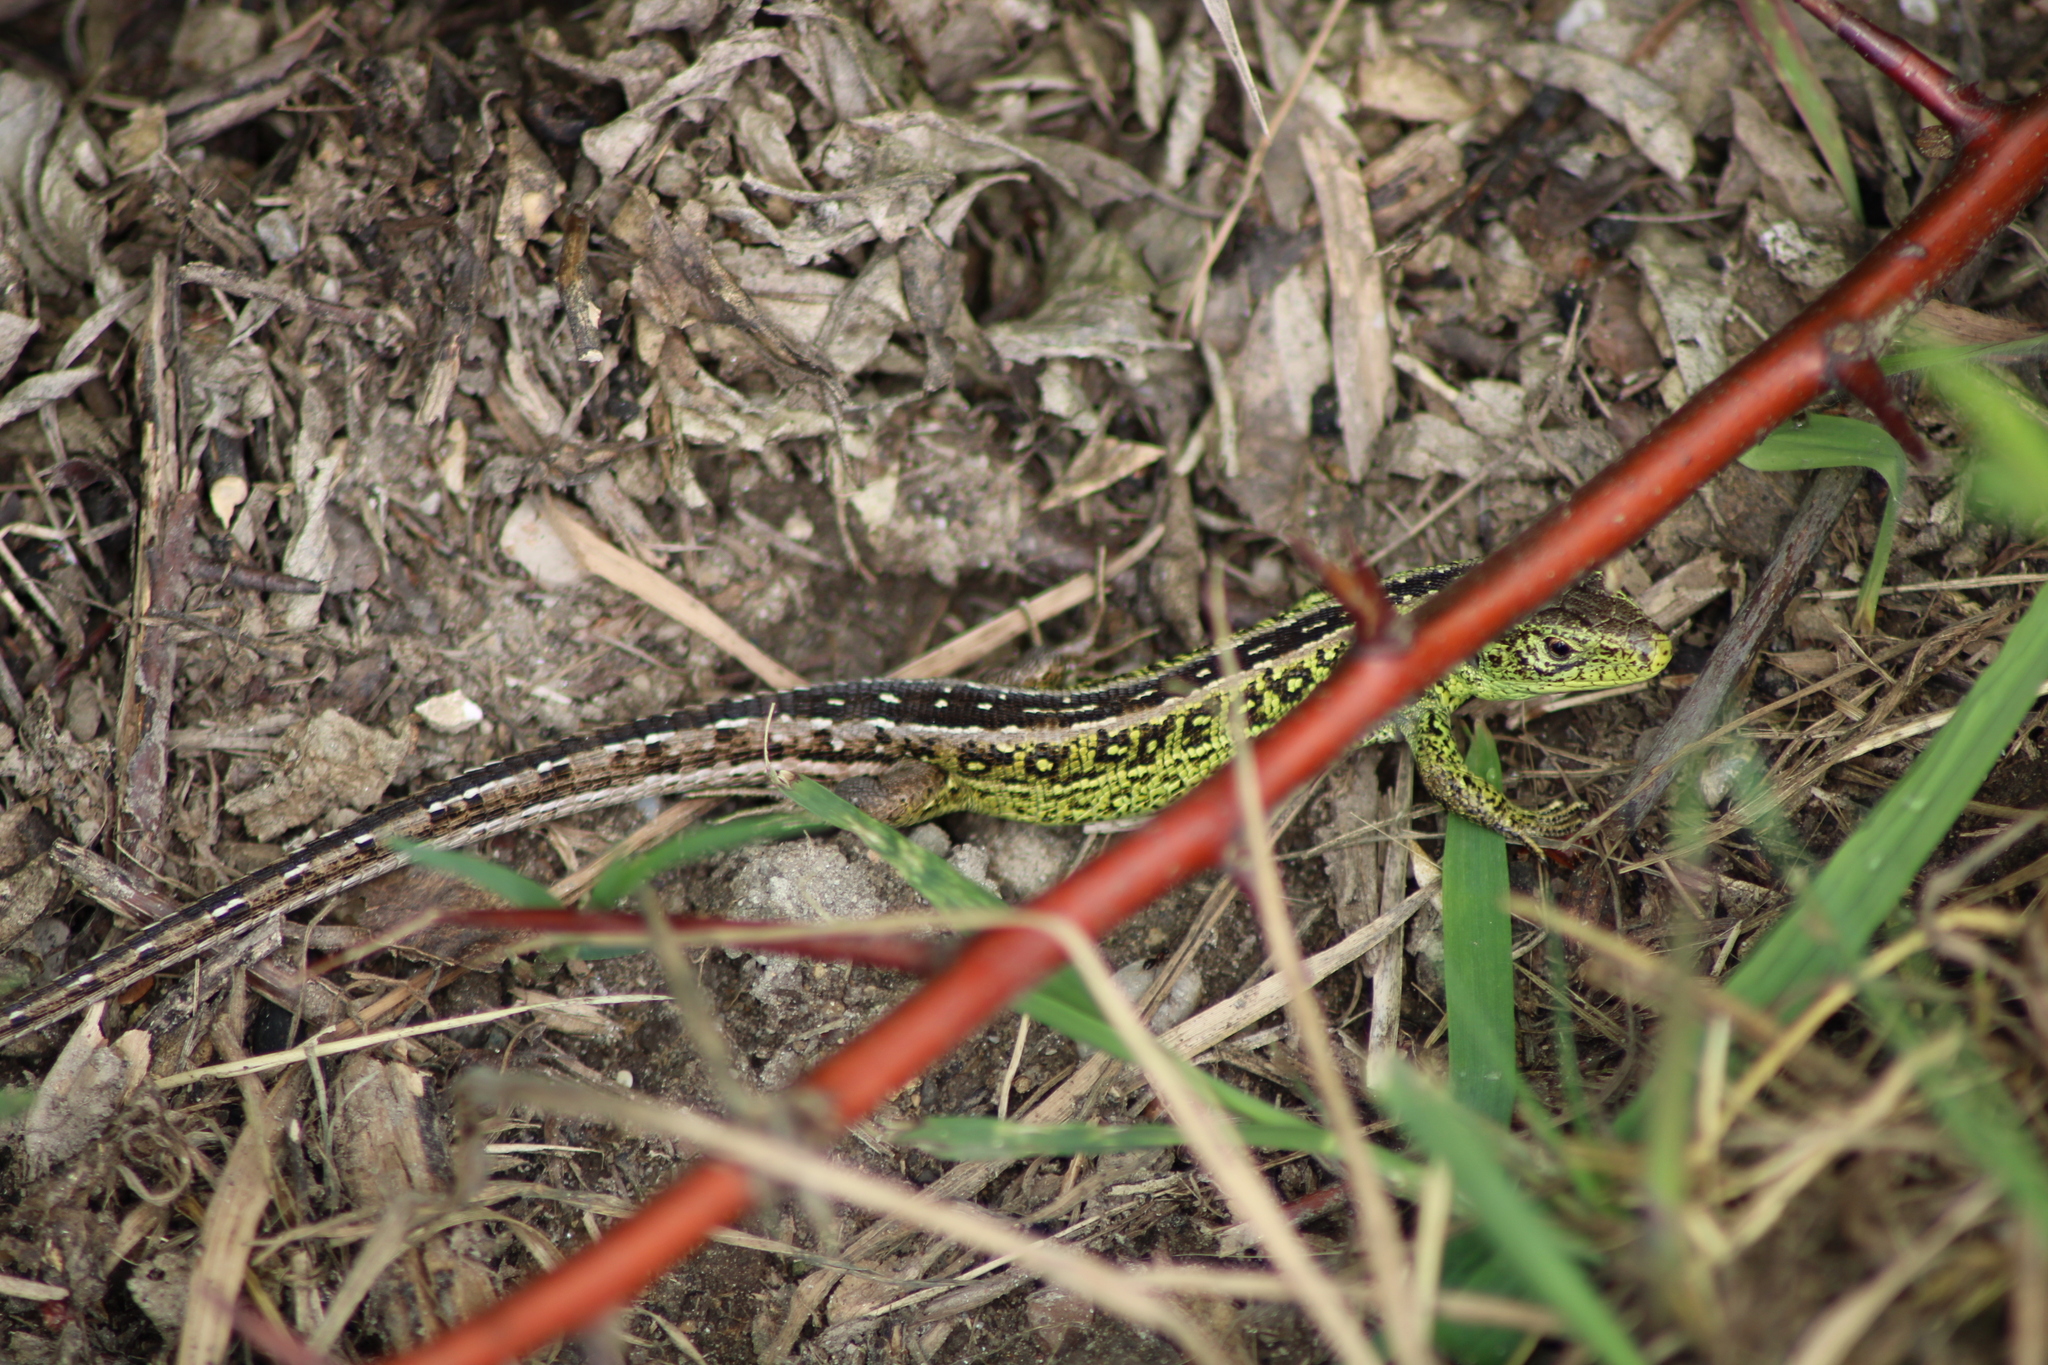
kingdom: Animalia
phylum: Chordata
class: Squamata
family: Lacertidae
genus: Lacerta
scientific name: Lacerta agilis
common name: Sand lizard
